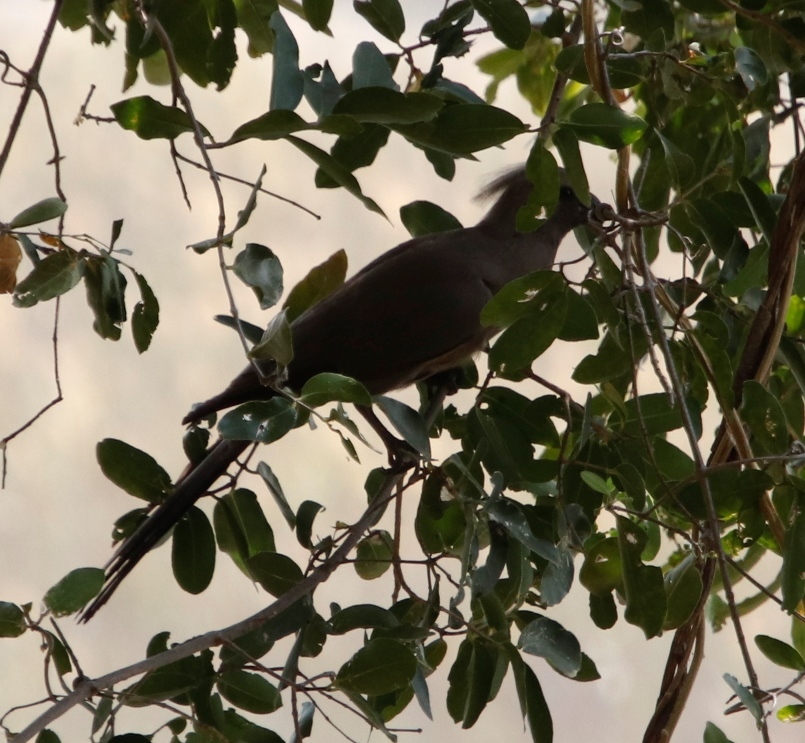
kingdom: Animalia
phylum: Chordata
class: Aves
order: Musophagiformes
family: Musophagidae
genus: Corythaixoides
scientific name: Corythaixoides concolor
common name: Grey go-away-bird
